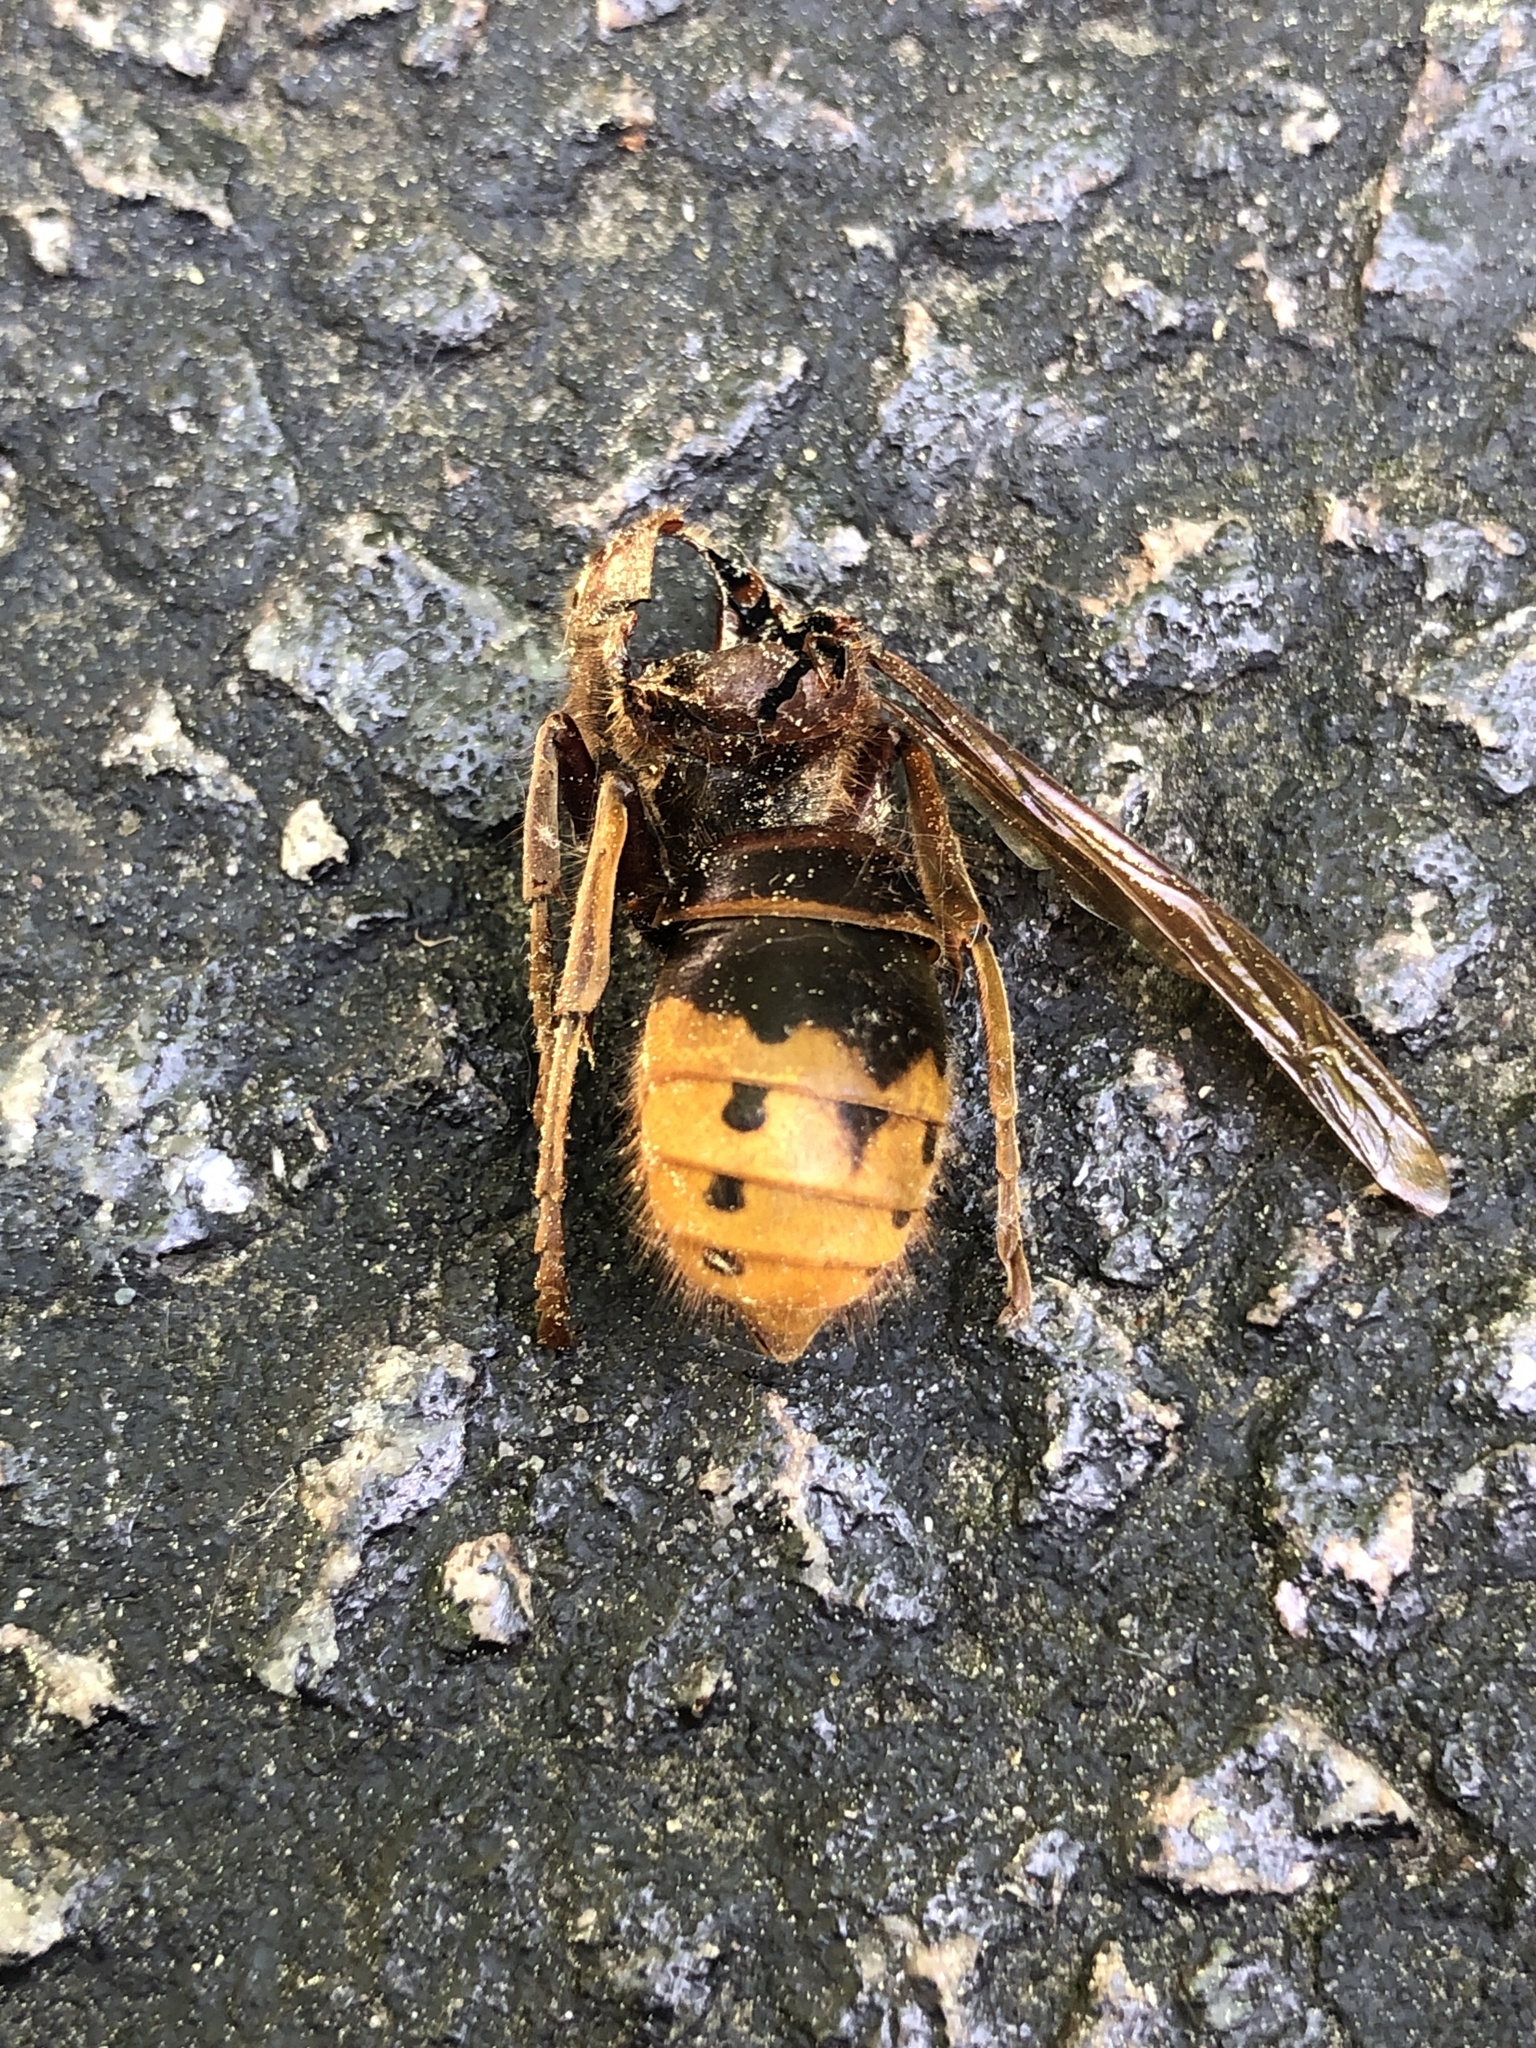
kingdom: Animalia
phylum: Arthropoda
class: Insecta
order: Hymenoptera
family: Vespidae
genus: Vespa
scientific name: Vespa crabro
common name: Hornet
